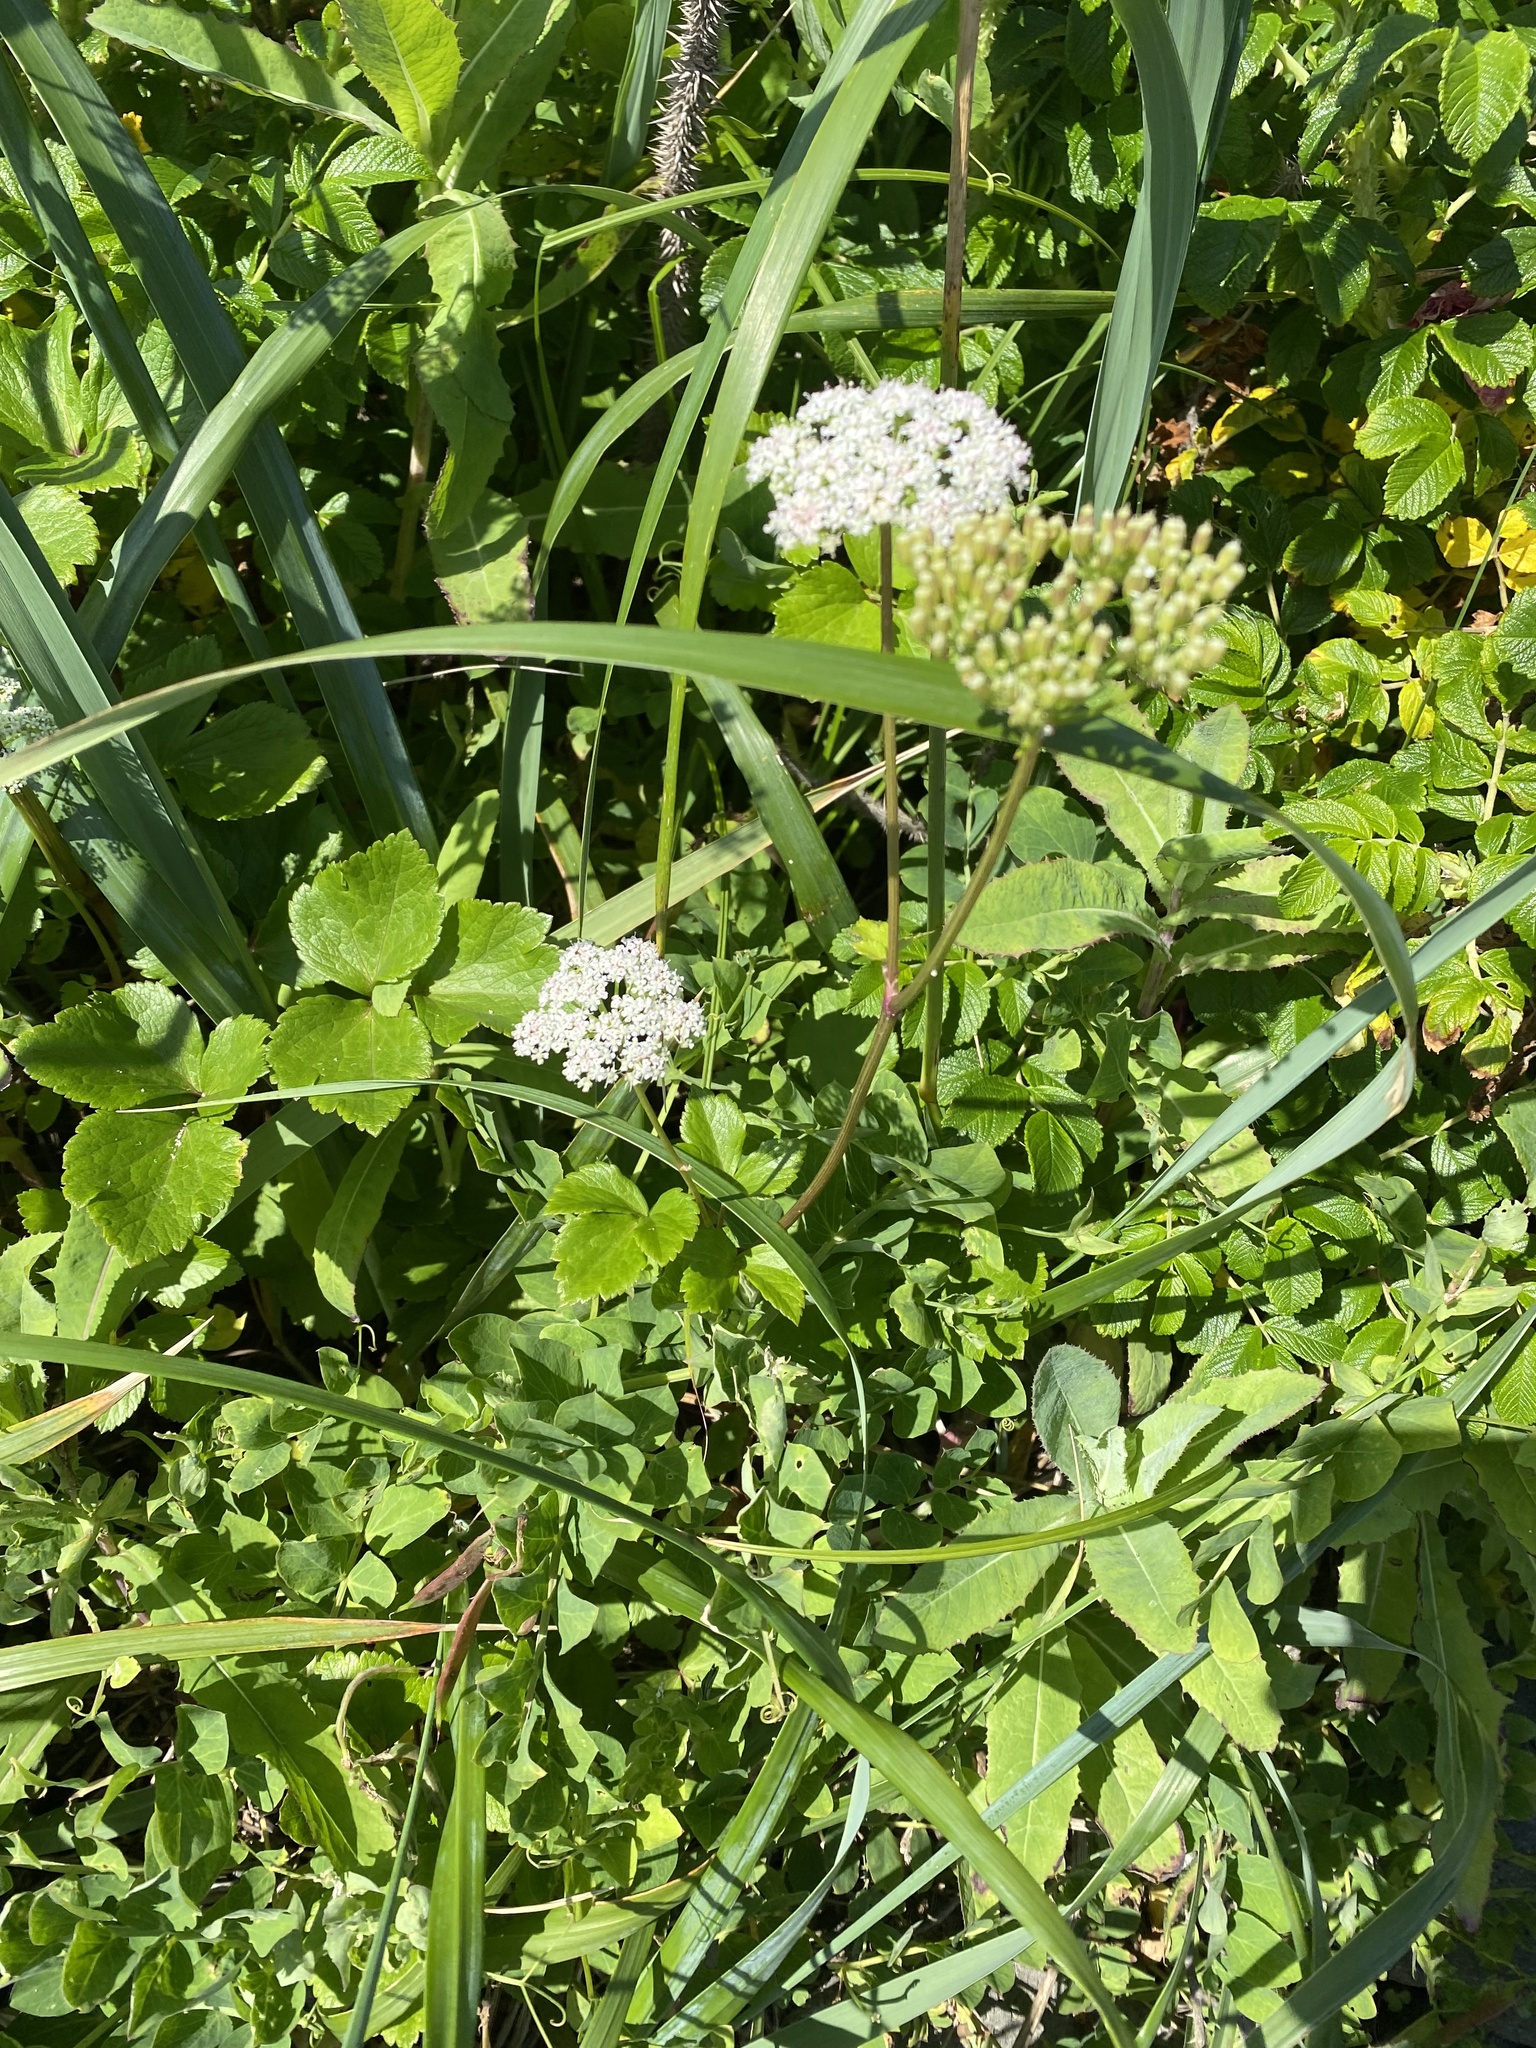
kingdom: Plantae
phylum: Tracheophyta
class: Magnoliopsida
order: Apiales
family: Apiaceae
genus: Ligusticum
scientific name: Ligusticum scothicum
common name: Beach lovage
